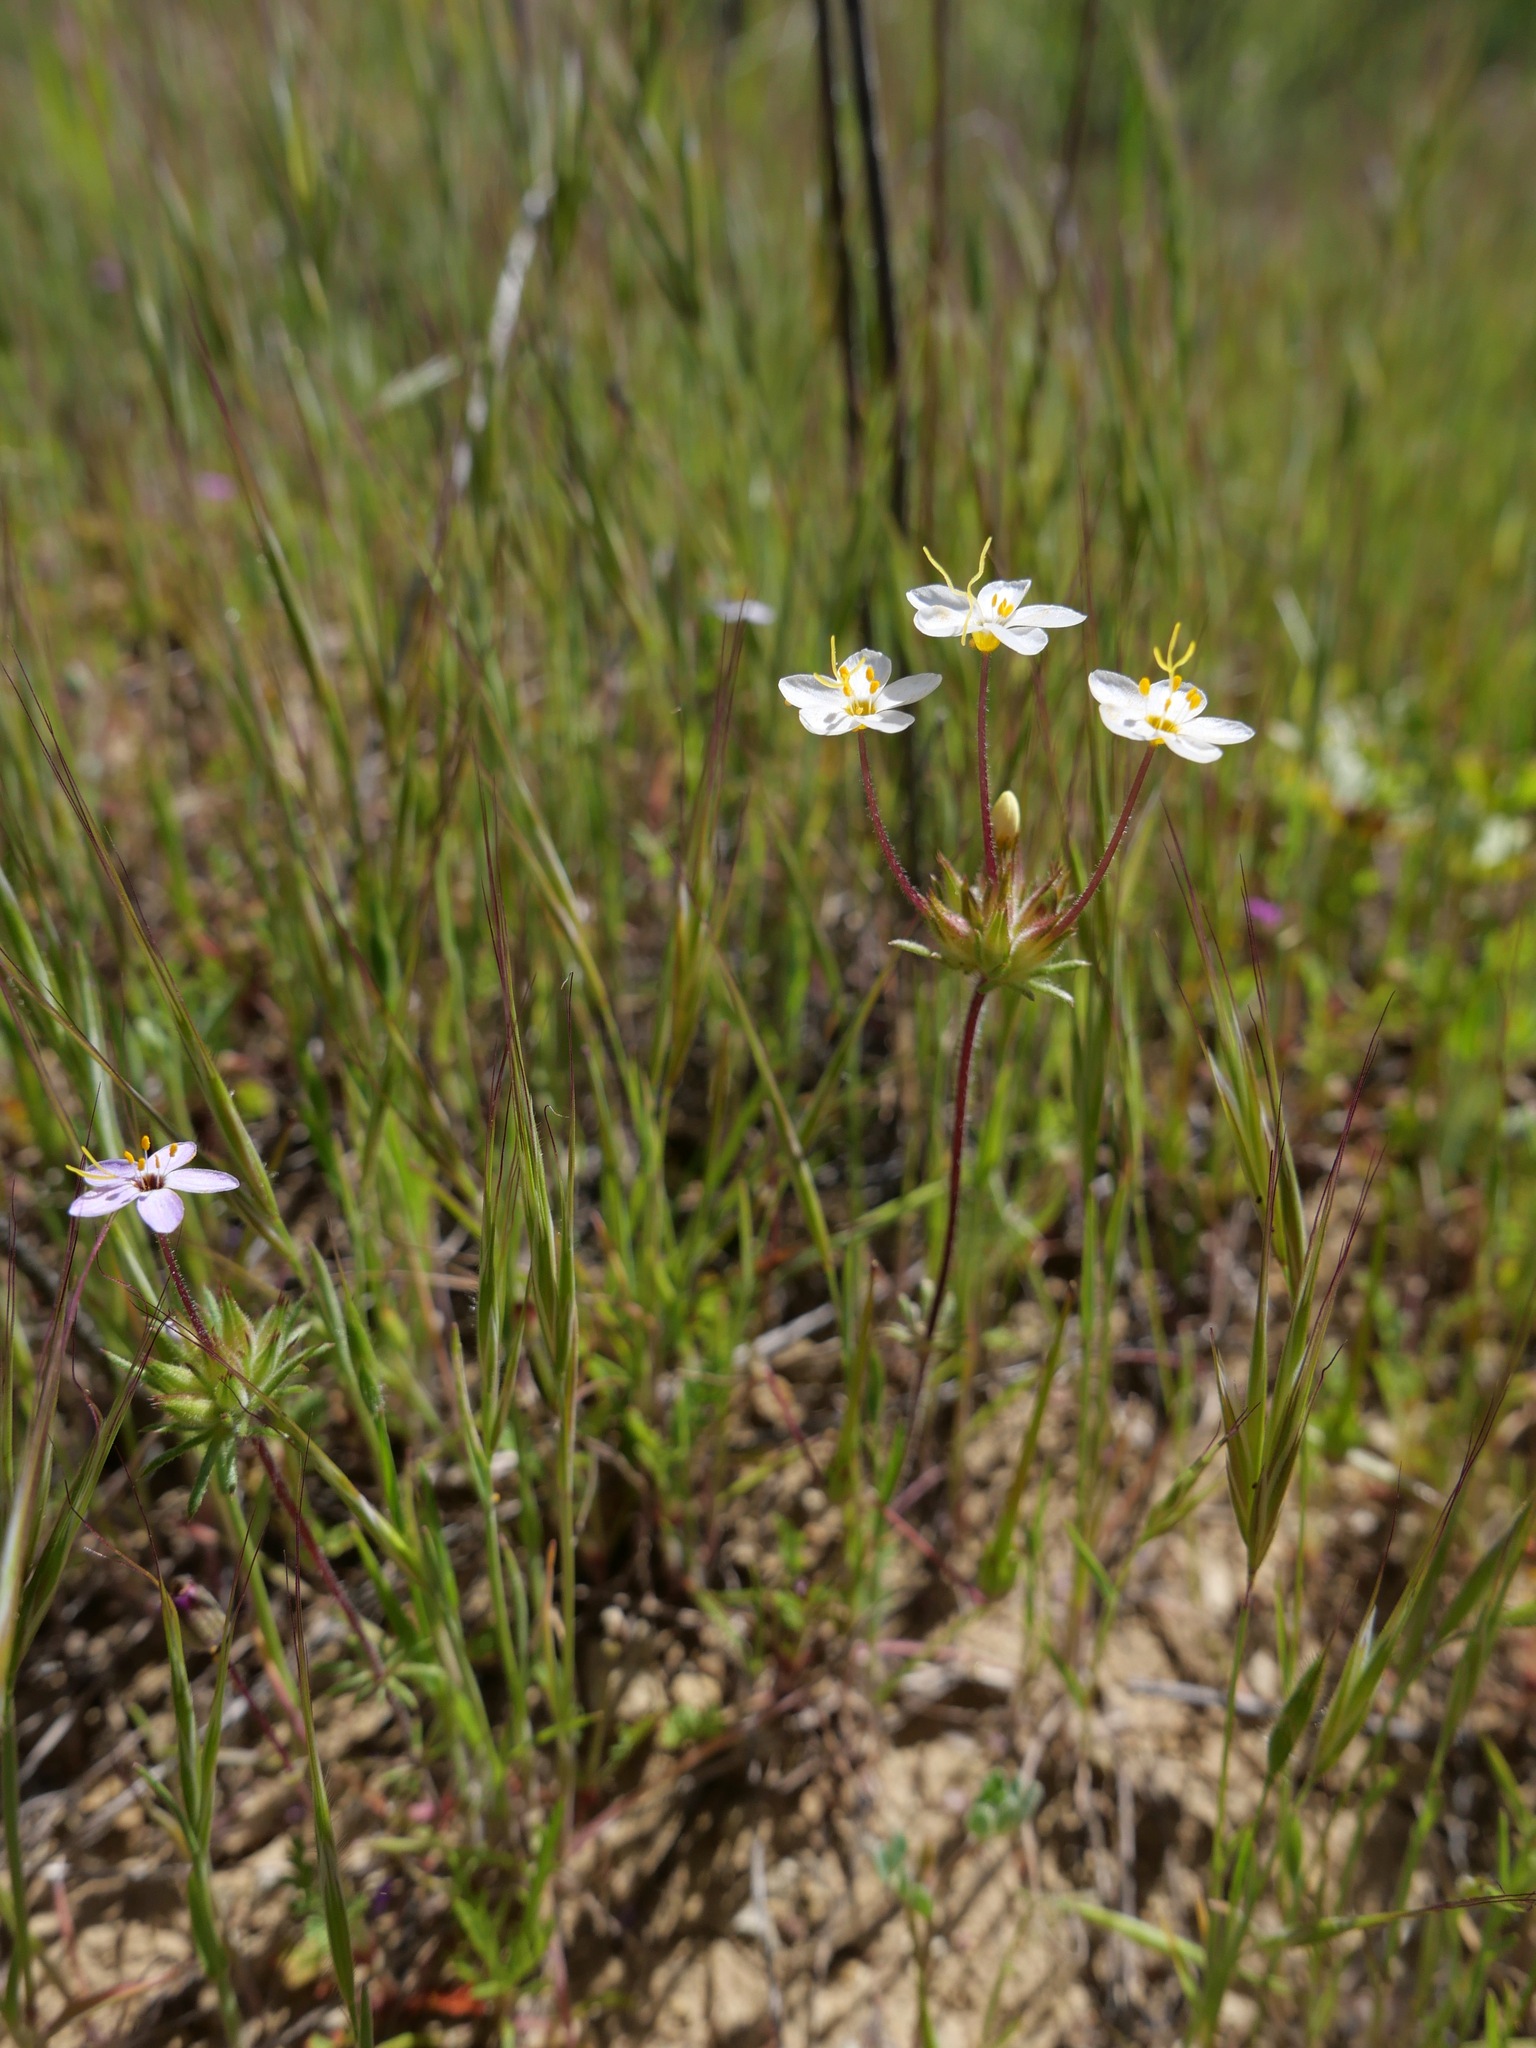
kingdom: Plantae
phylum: Tracheophyta
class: Magnoliopsida
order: Ericales
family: Polemoniaceae
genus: Leptosiphon
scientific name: Leptosiphon parviflorus
